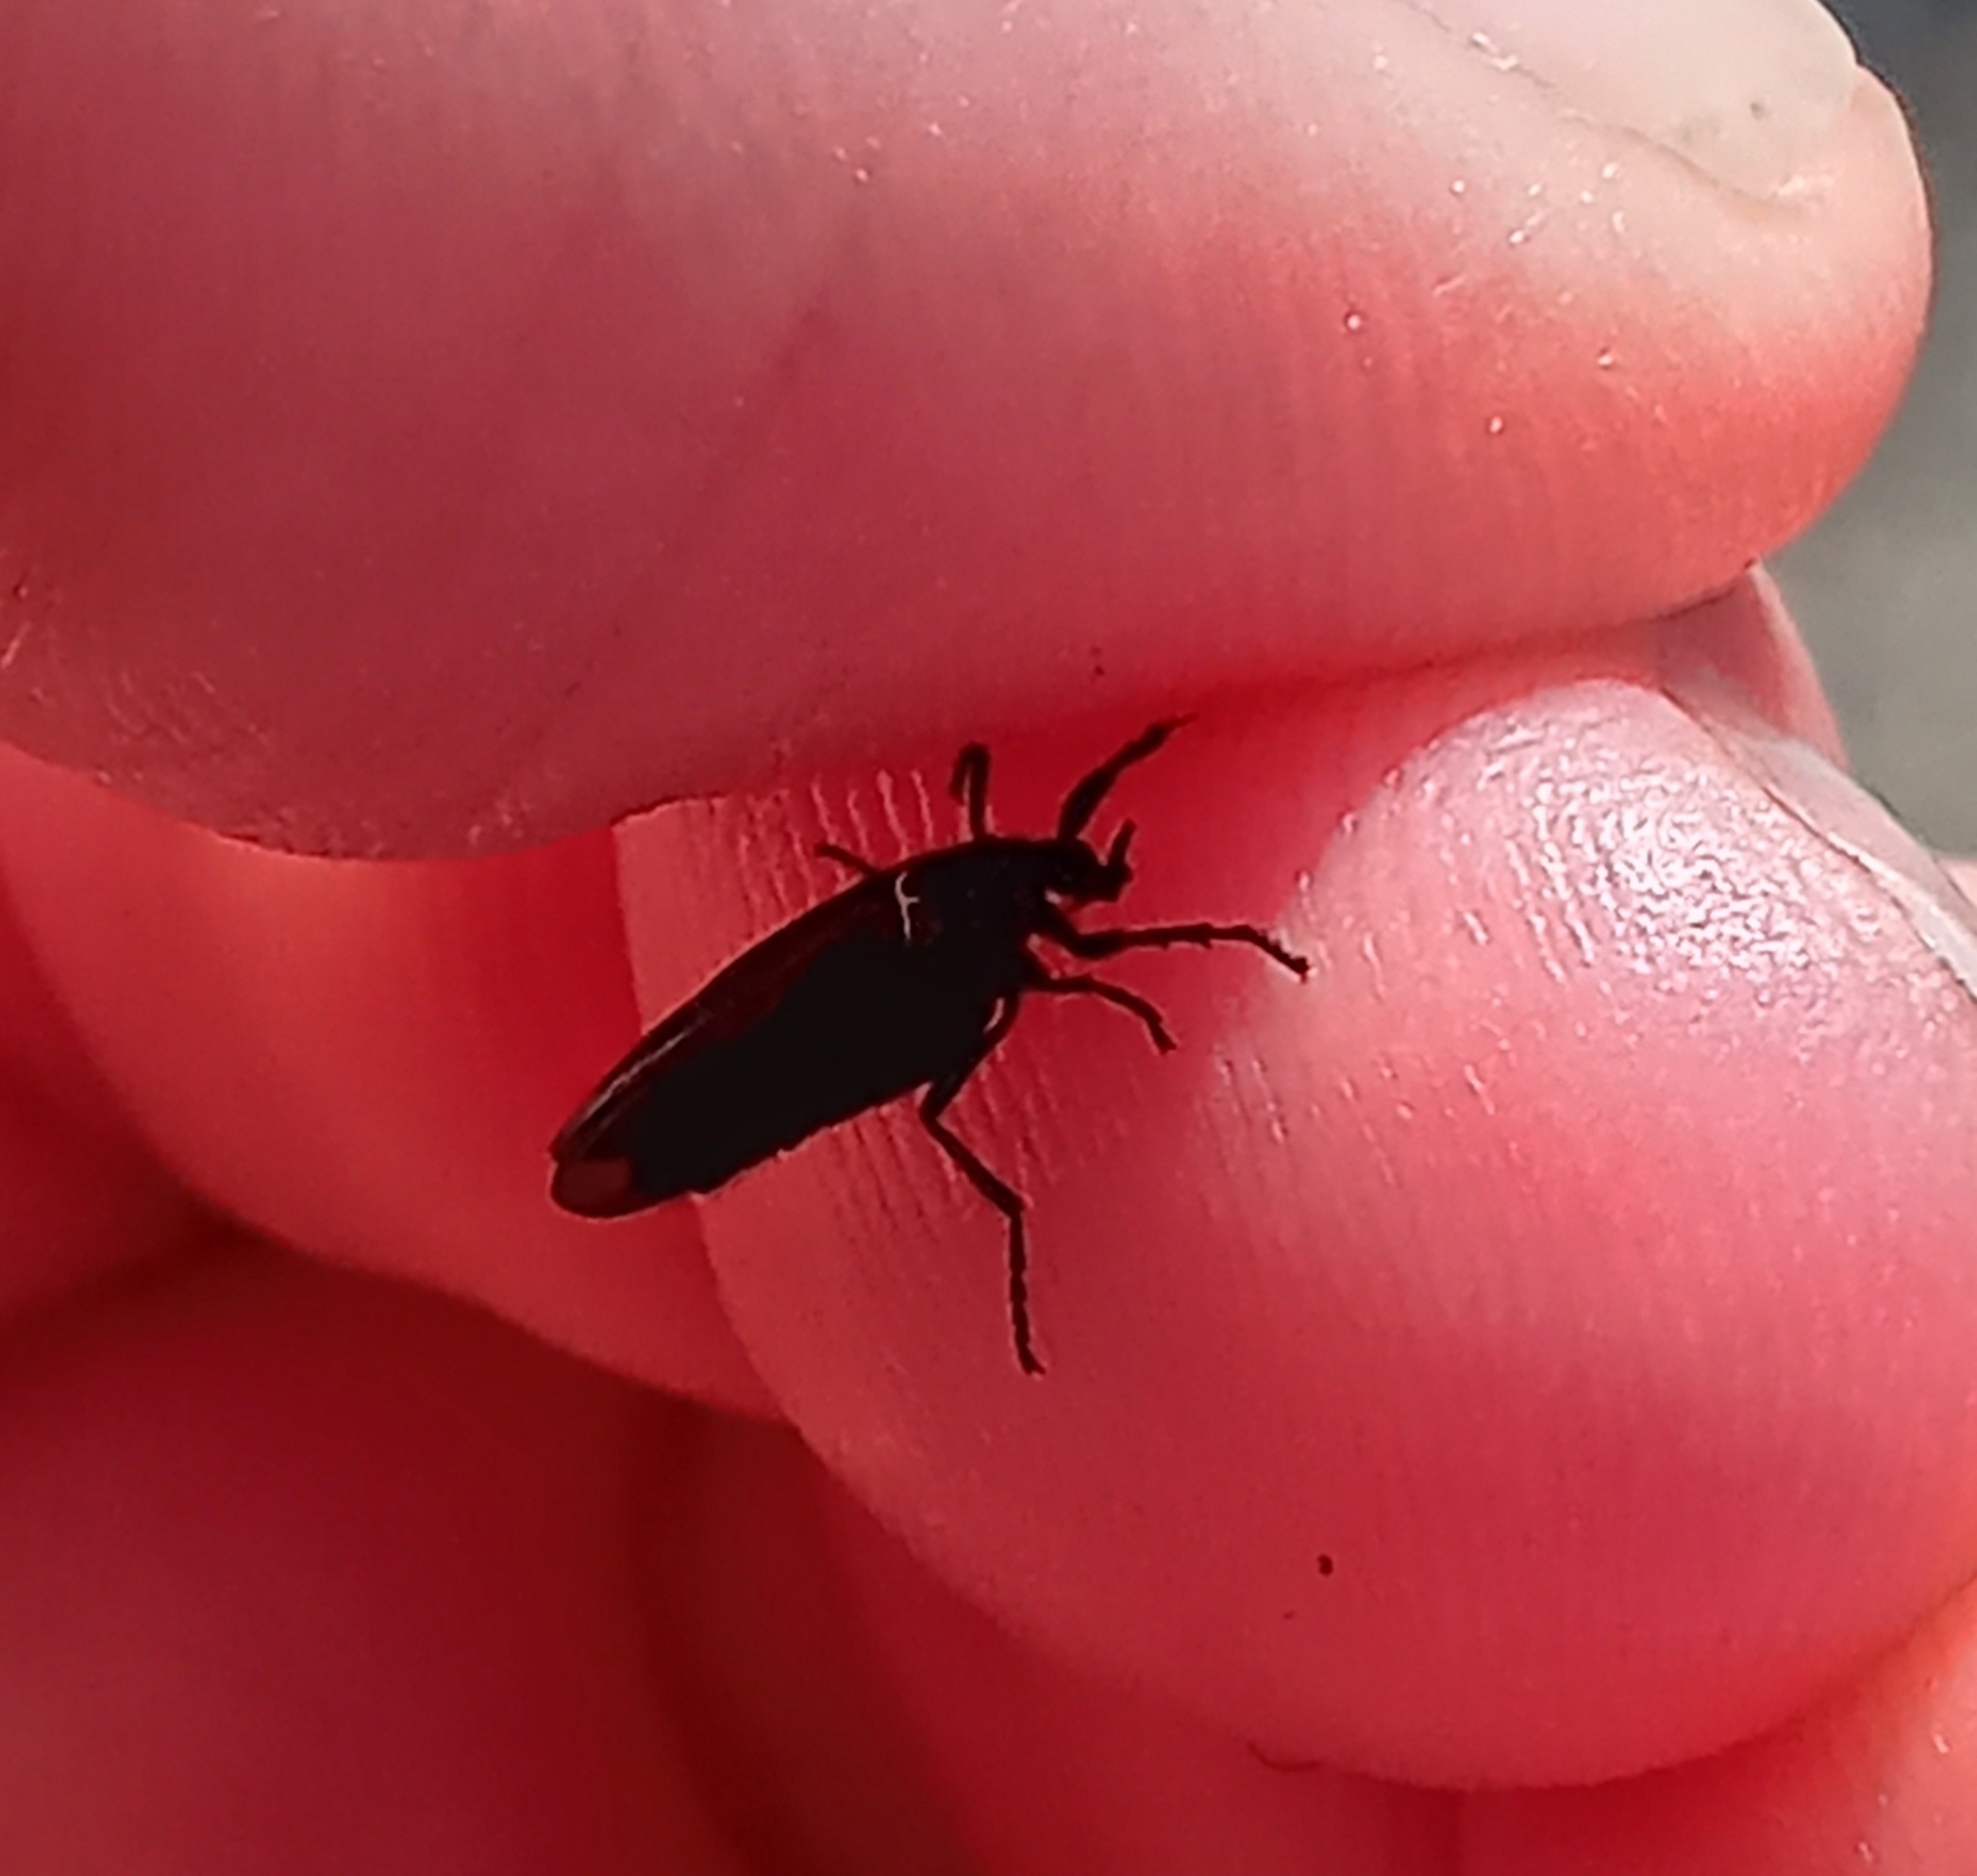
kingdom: Animalia
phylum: Arthropoda
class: Insecta
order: Diptera
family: Bibionidae
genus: Dilophus
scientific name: Dilophus orbatus
